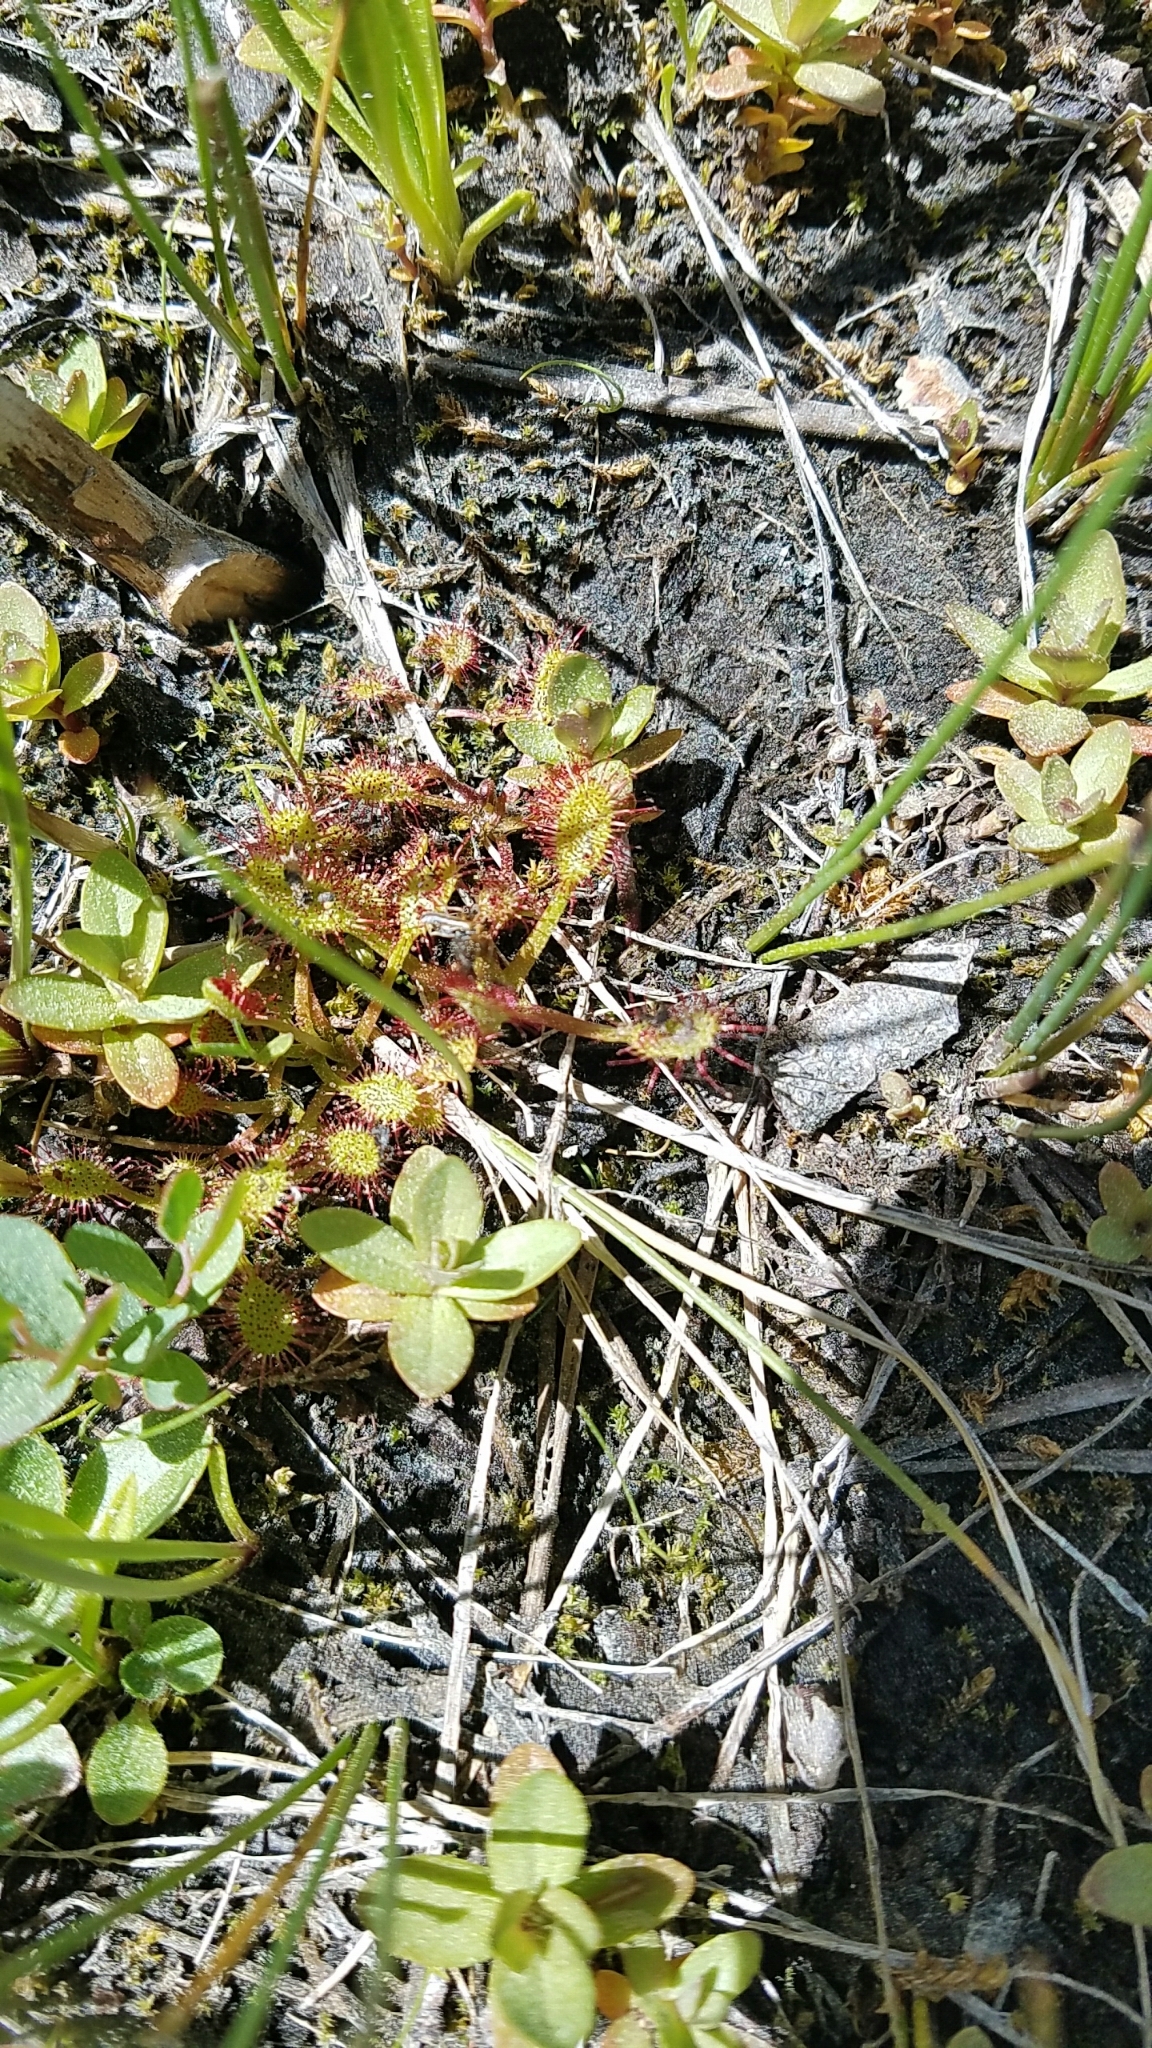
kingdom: Plantae
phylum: Tracheophyta
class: Magnoliopsida
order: Caryophyllales
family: Droseraceae
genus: Drosera
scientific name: Drosera anglica
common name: Great sundew
